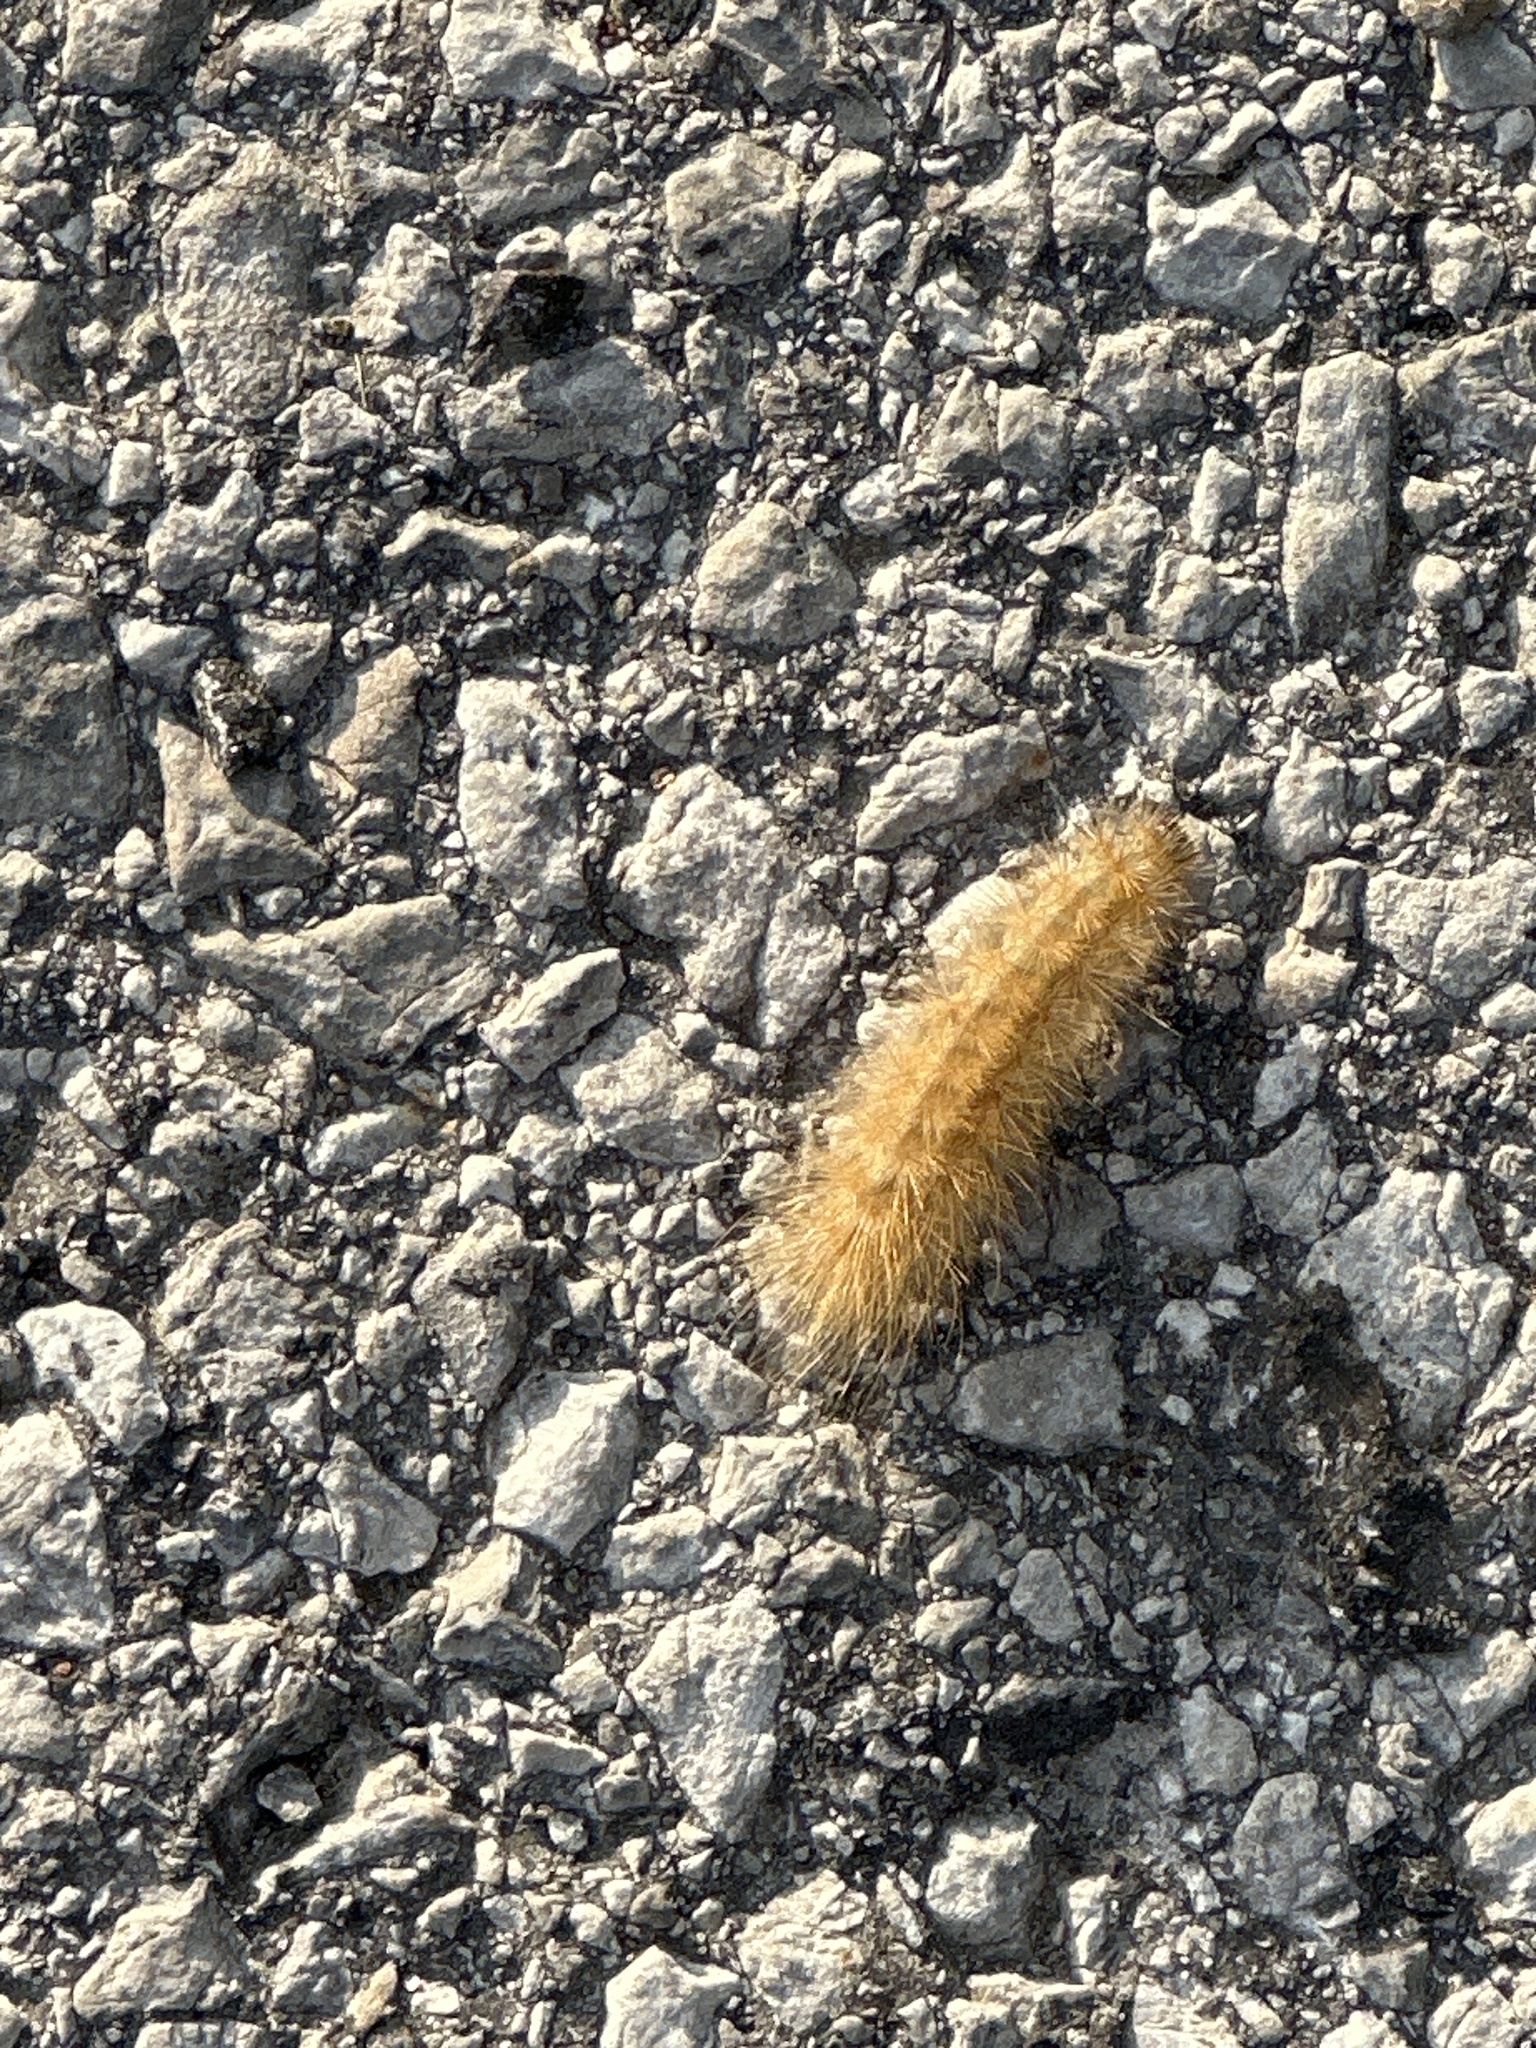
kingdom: Animalia
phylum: Arthropoda
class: Insecta
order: Lepidoptera
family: Erebidae
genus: Phragmatobia
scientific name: Phragmatobia fuliginosa
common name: Ruby tiger
